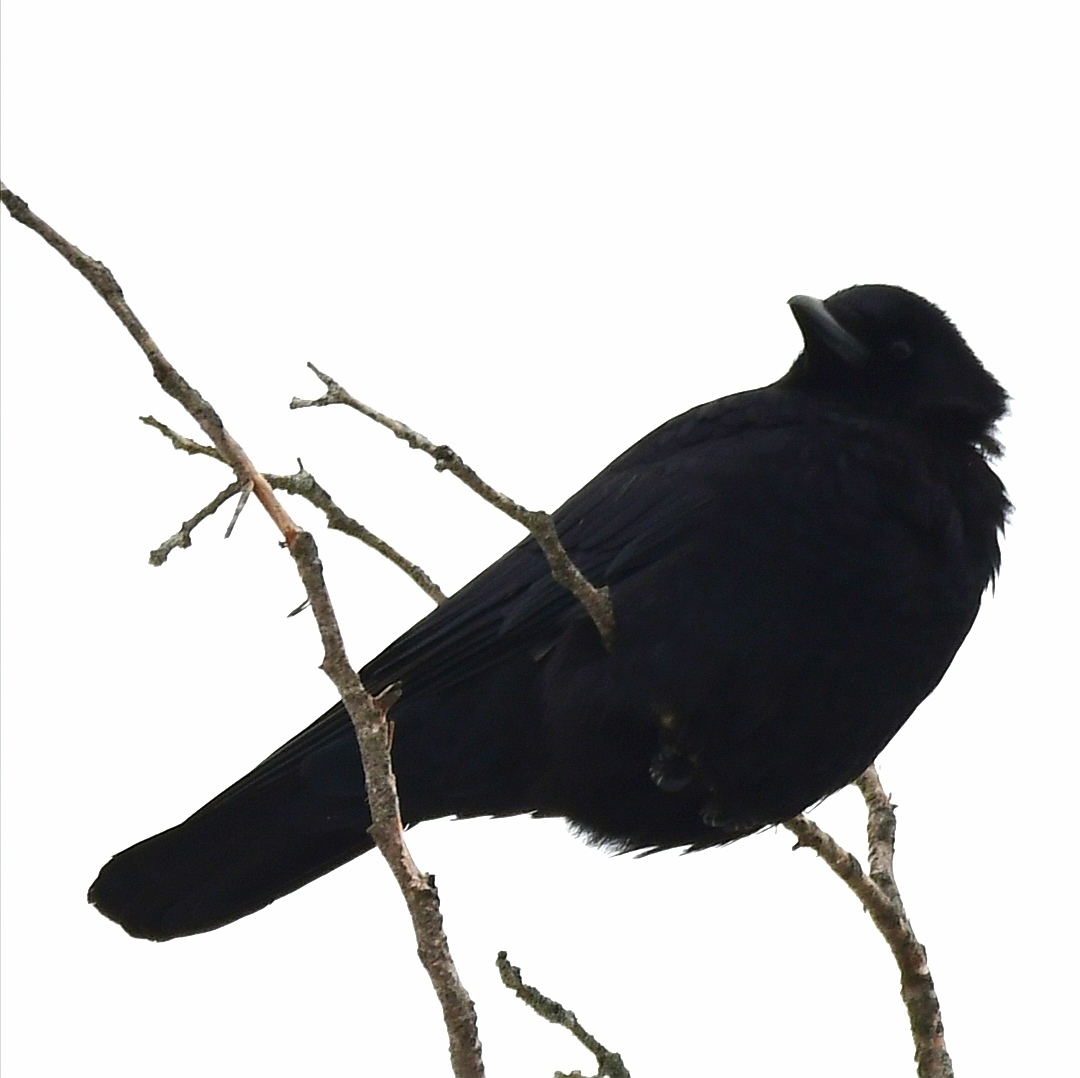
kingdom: Animalia
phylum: Chordata
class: Aves
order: Passeriformes
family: Corvidae
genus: Corvus
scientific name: Corvus brachyrhynchos
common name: American crow
